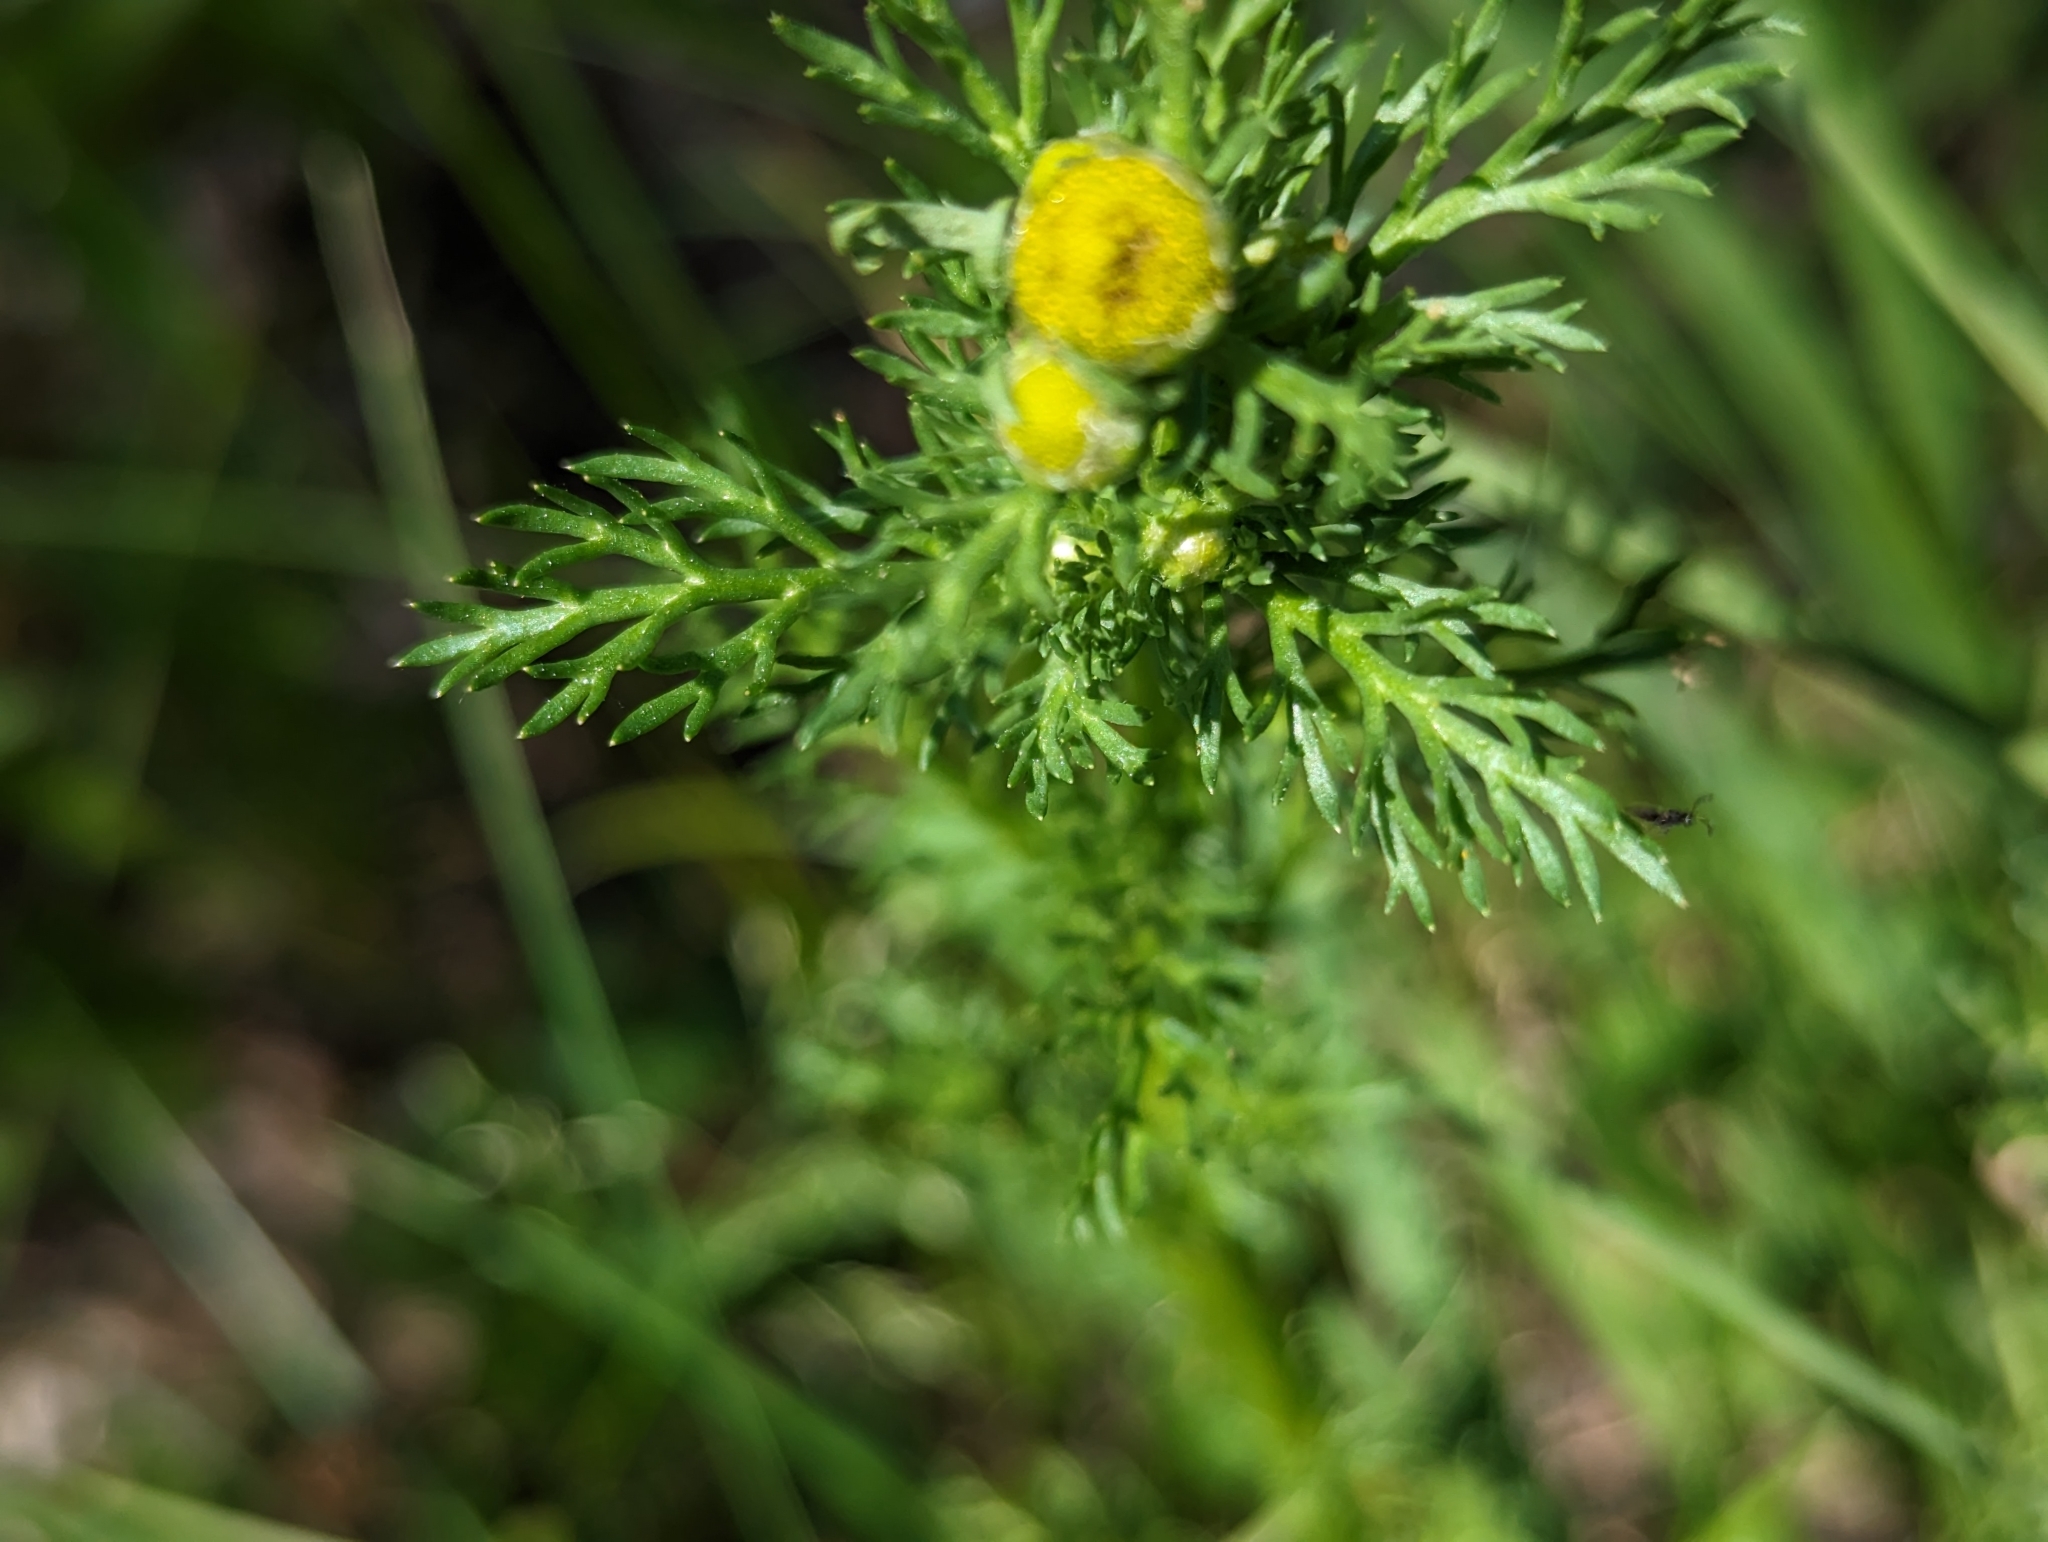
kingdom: Plantae
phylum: Tracheophyta
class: Magnoliopsida
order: Asterales
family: Asteraceae
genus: Matricaria
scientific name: Matricaria discoidea
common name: Disc mayweed
